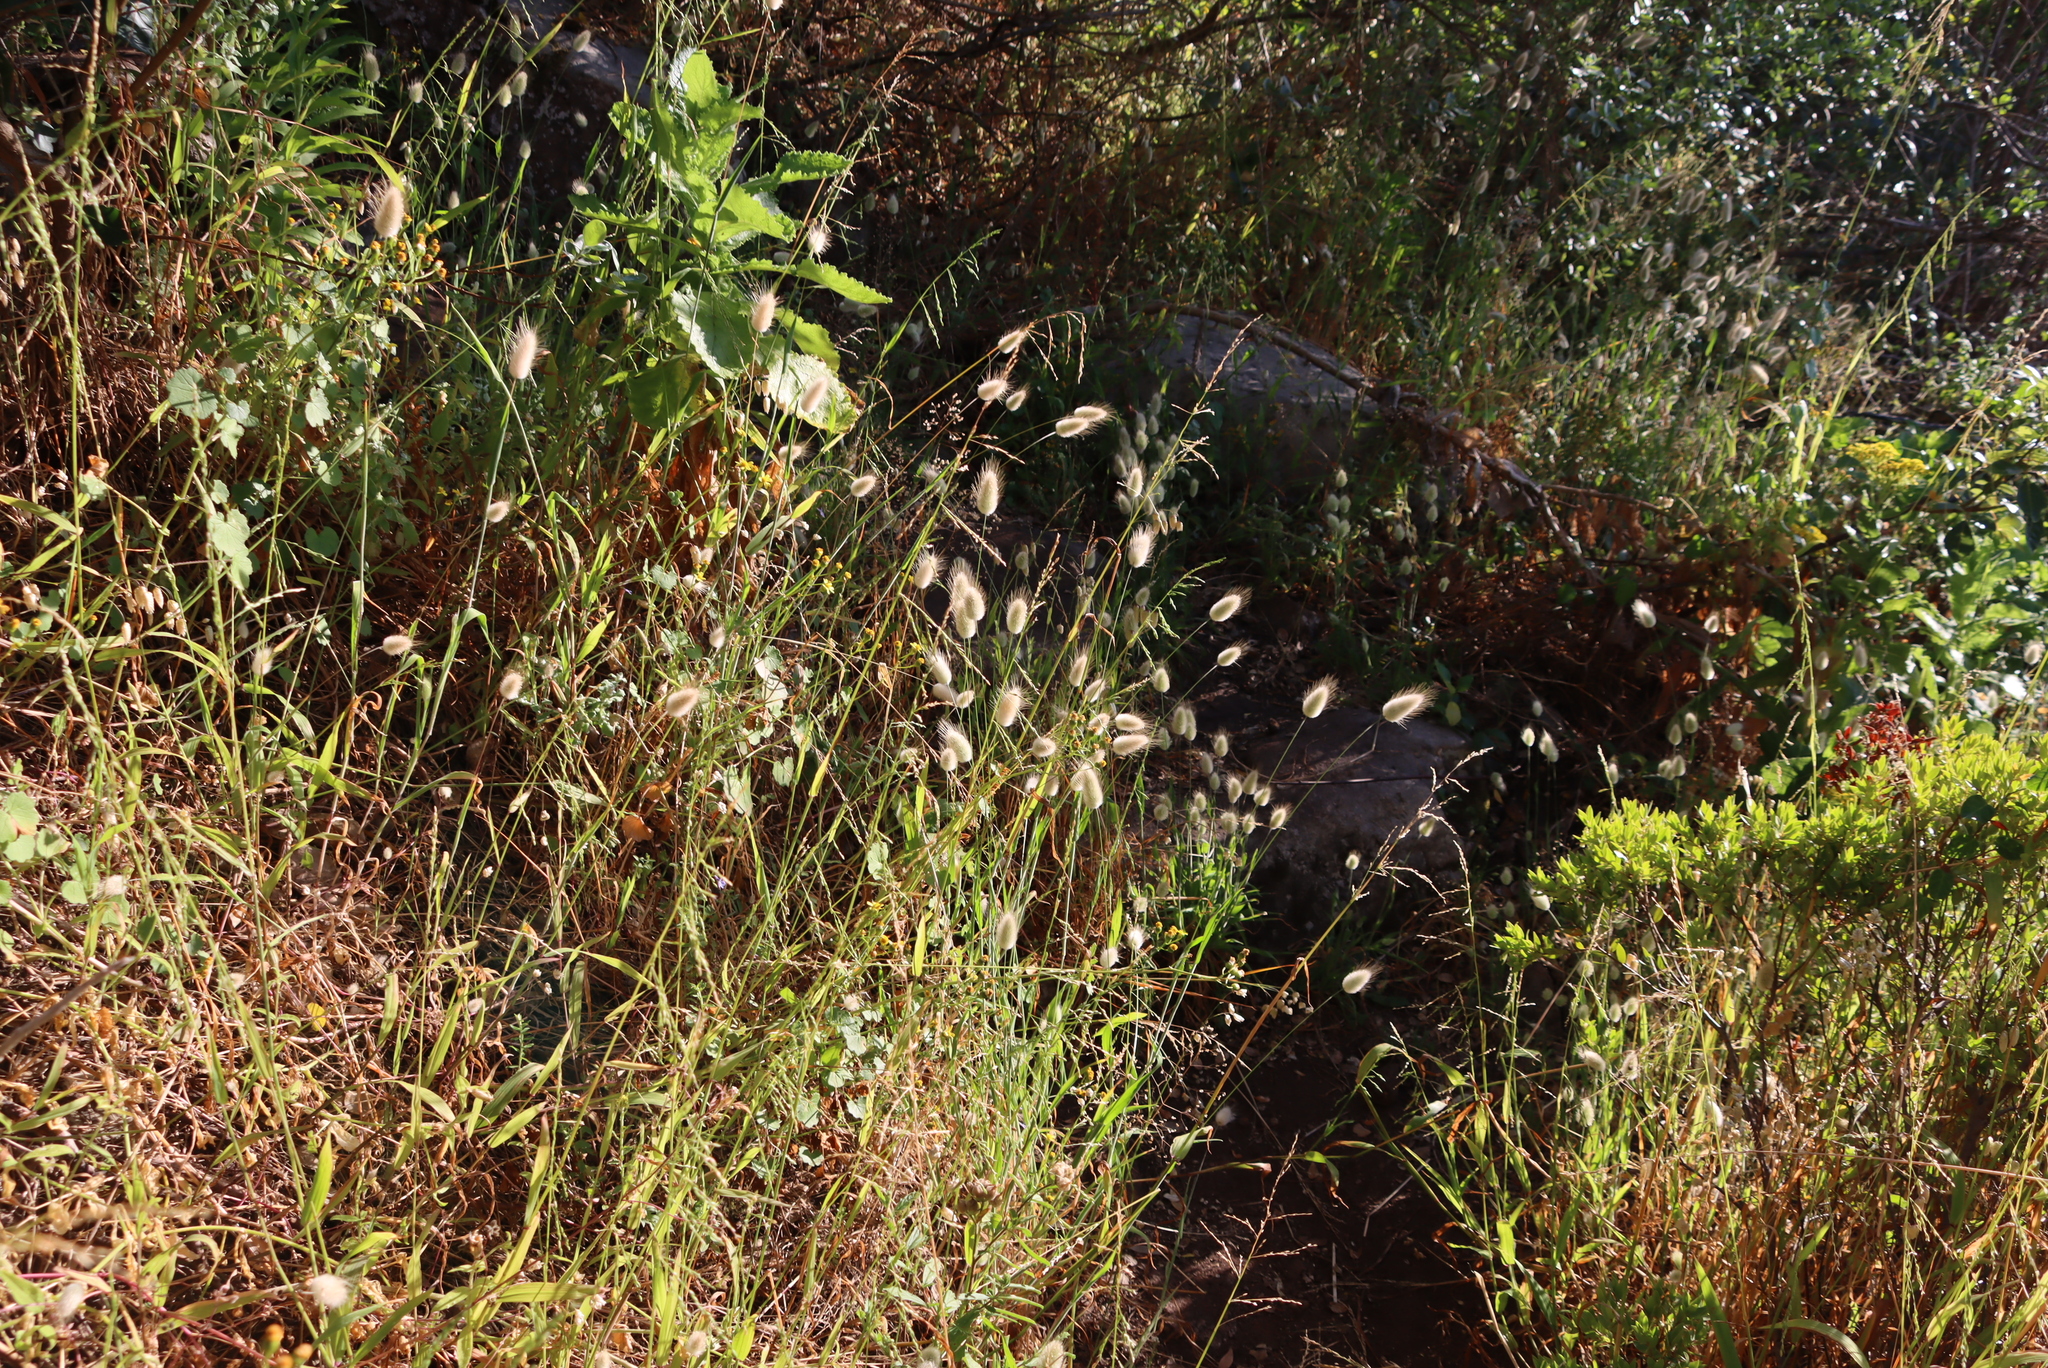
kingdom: Plantae
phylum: Tracheophyta
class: Liliopsida
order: Poales
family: Poaceae
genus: Lagurus
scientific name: Lagurus ovatus
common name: Hare's-tail
